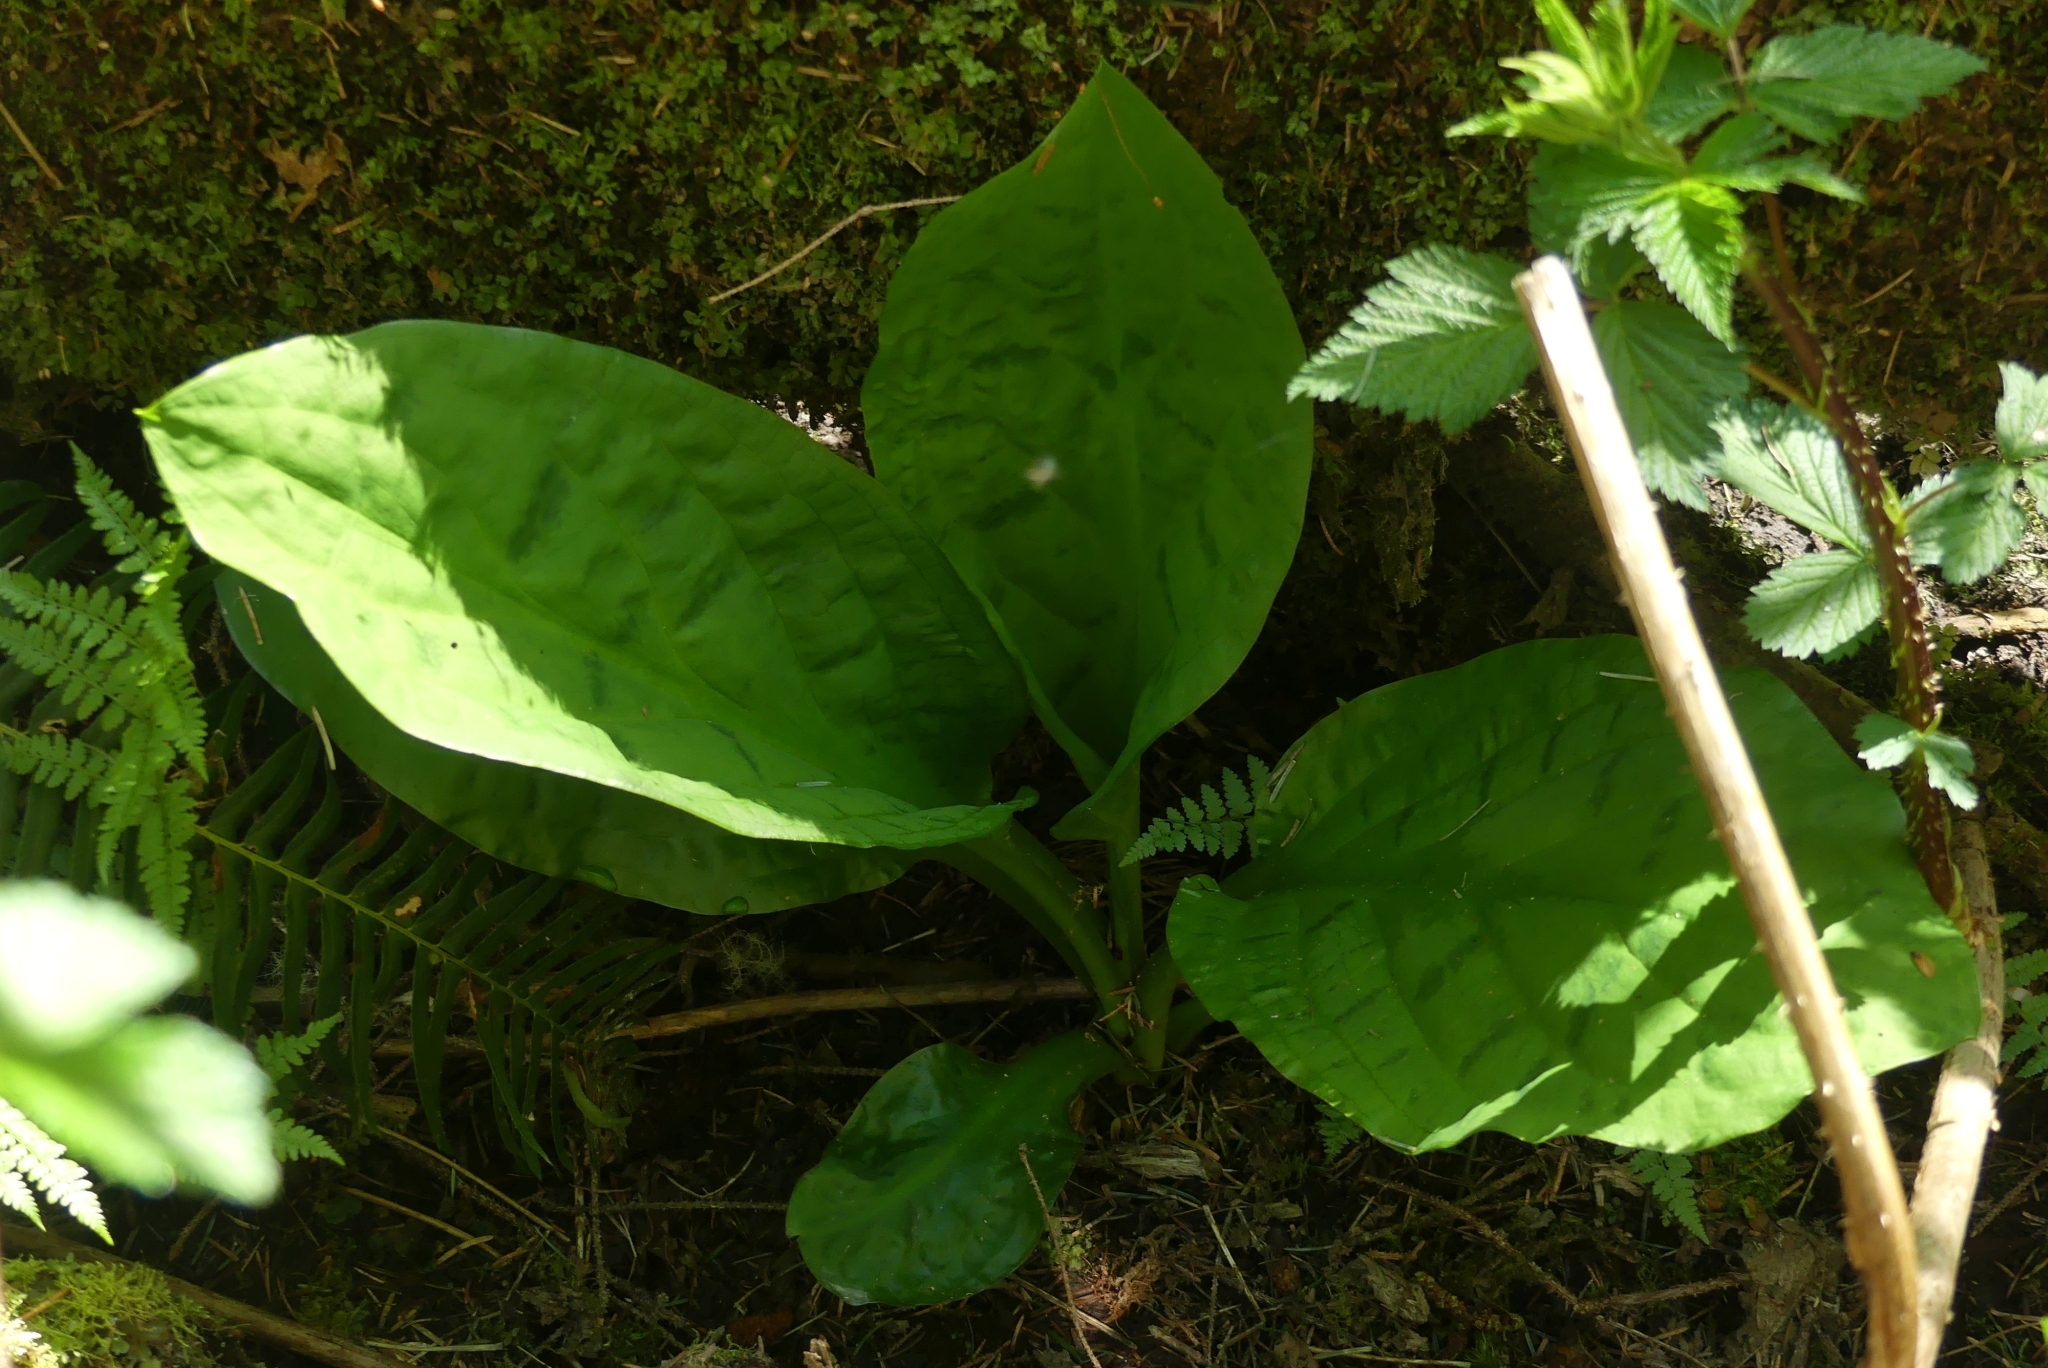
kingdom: Plantae
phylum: Tracheophyta
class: Liliopsida
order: Alismatales
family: Araceae
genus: Lysichiton
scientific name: Lysichiton americanus
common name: American skunk cabbage
